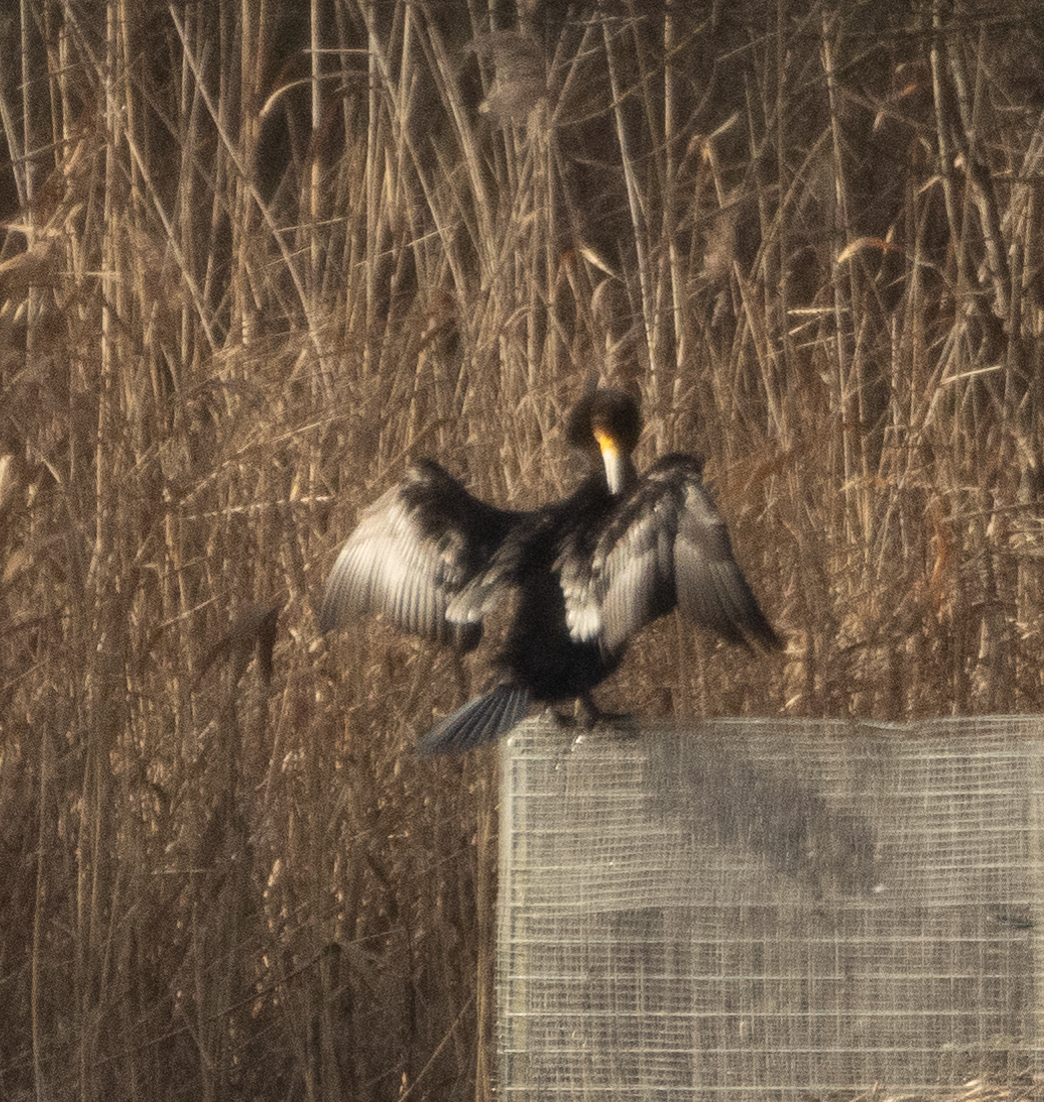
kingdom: Animalia
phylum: Chordata
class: Aves
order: Suliformes
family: Phalacrocoracidae
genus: Phalacrocorax
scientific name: Phalacrocorax carbo
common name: Great cormorant
